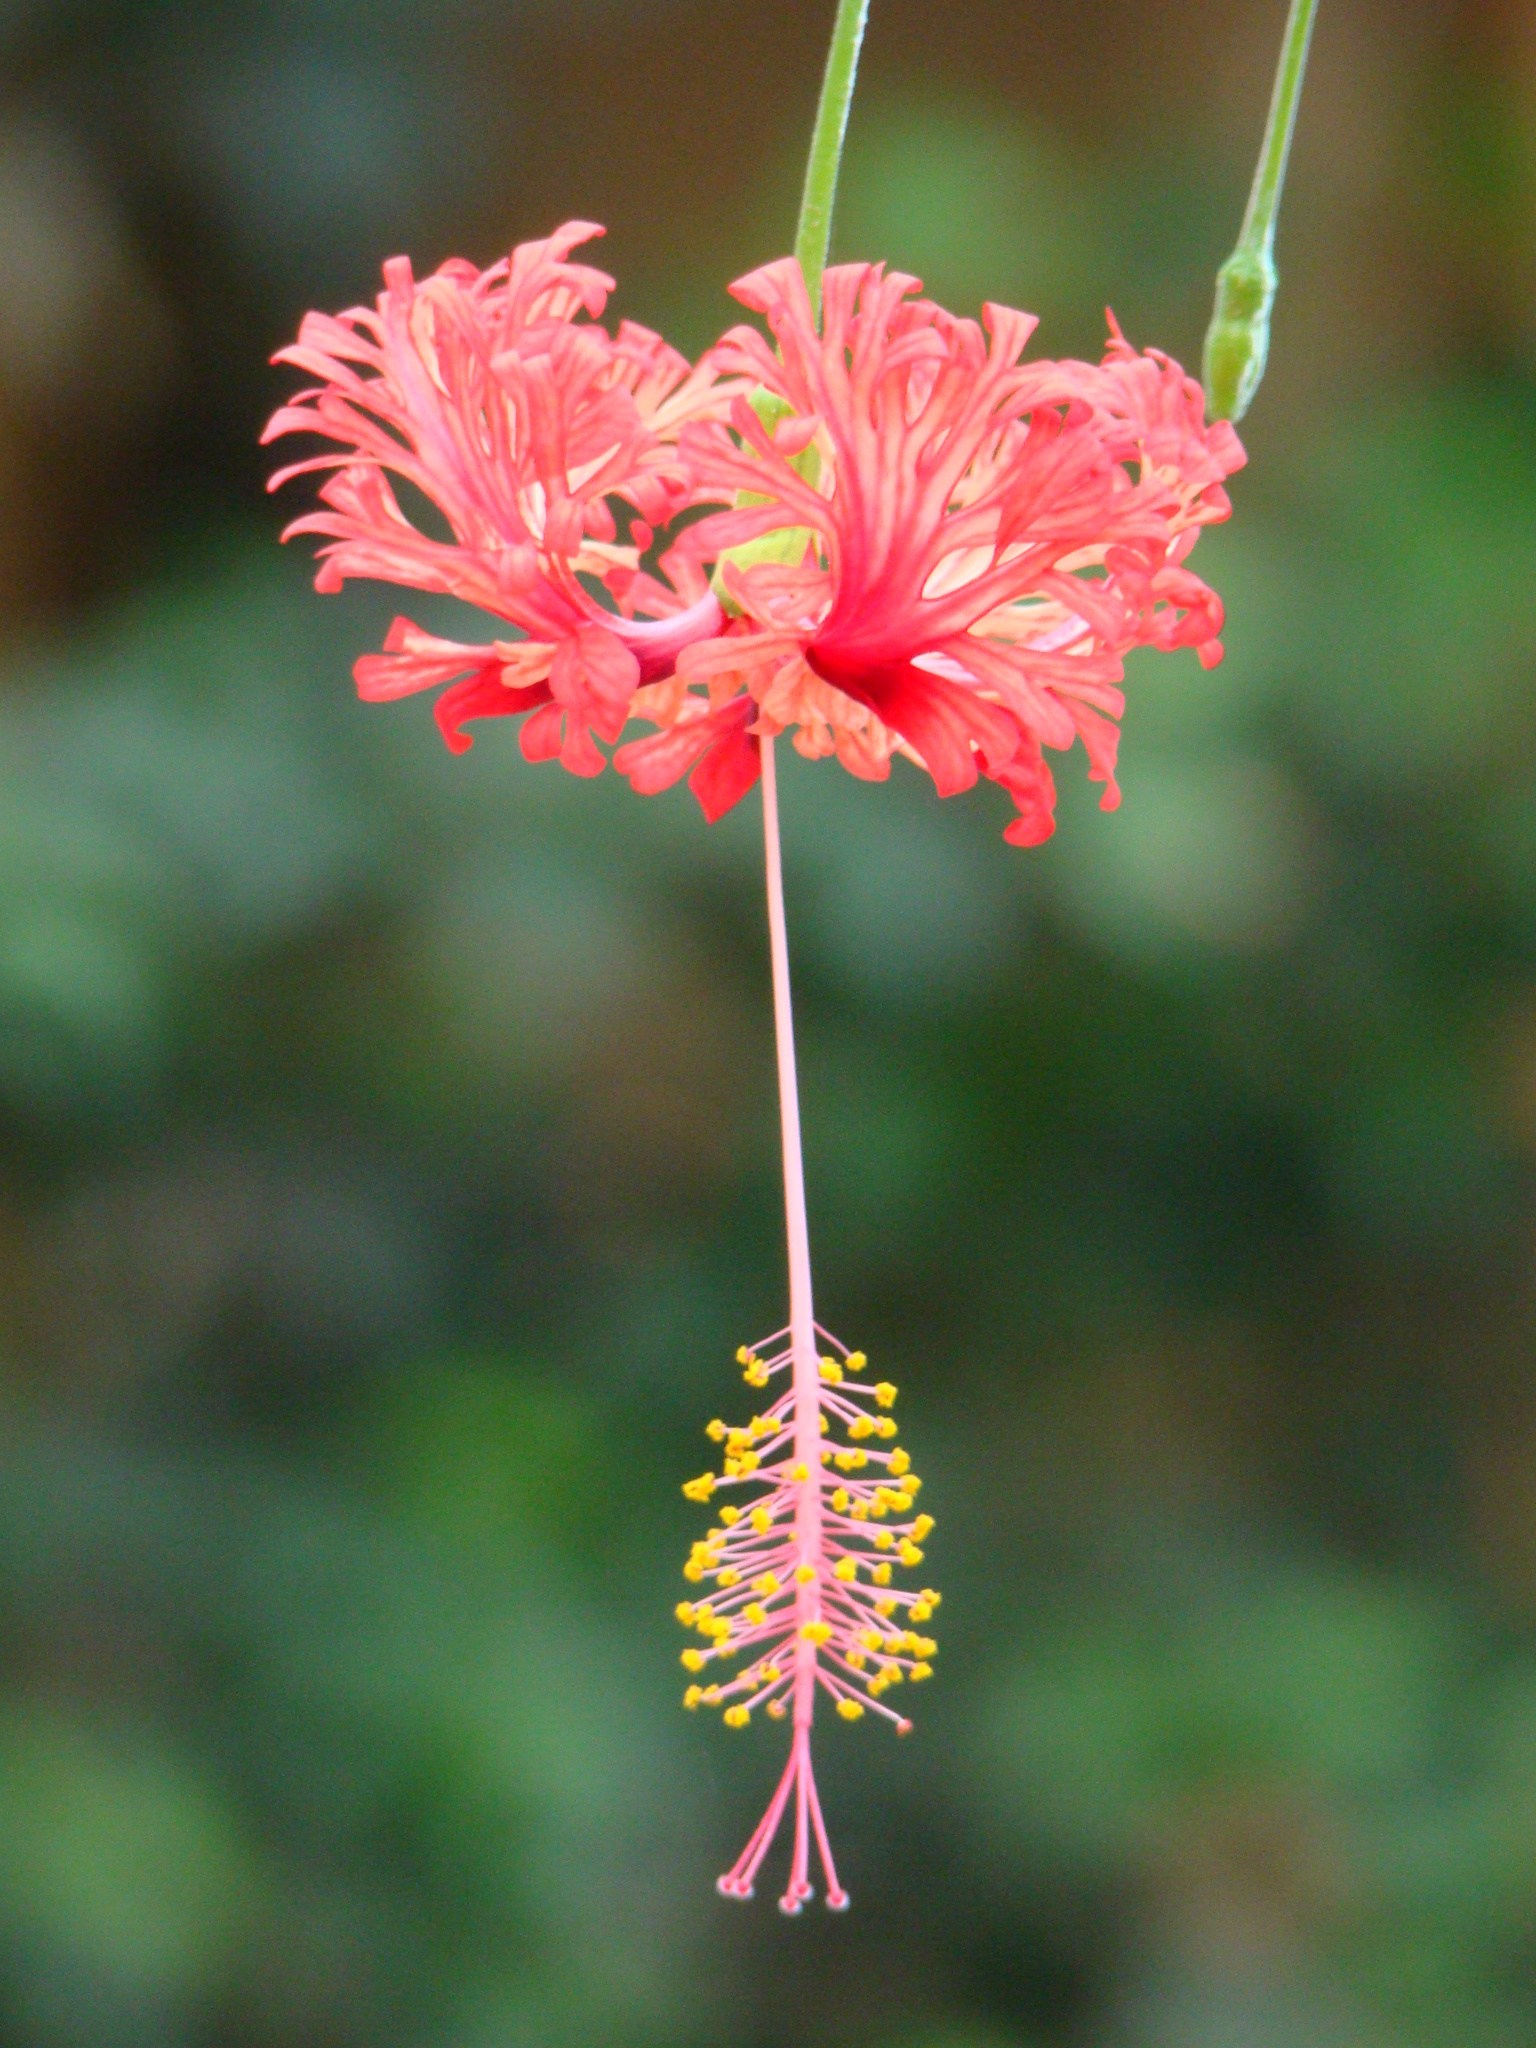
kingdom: Plantae
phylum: Tracheophyta
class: Magnoliopsida
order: Malvales
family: Malvaceae
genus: Hibiscus
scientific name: Hibiscus schizopetalus
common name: Fringed rosemallow
